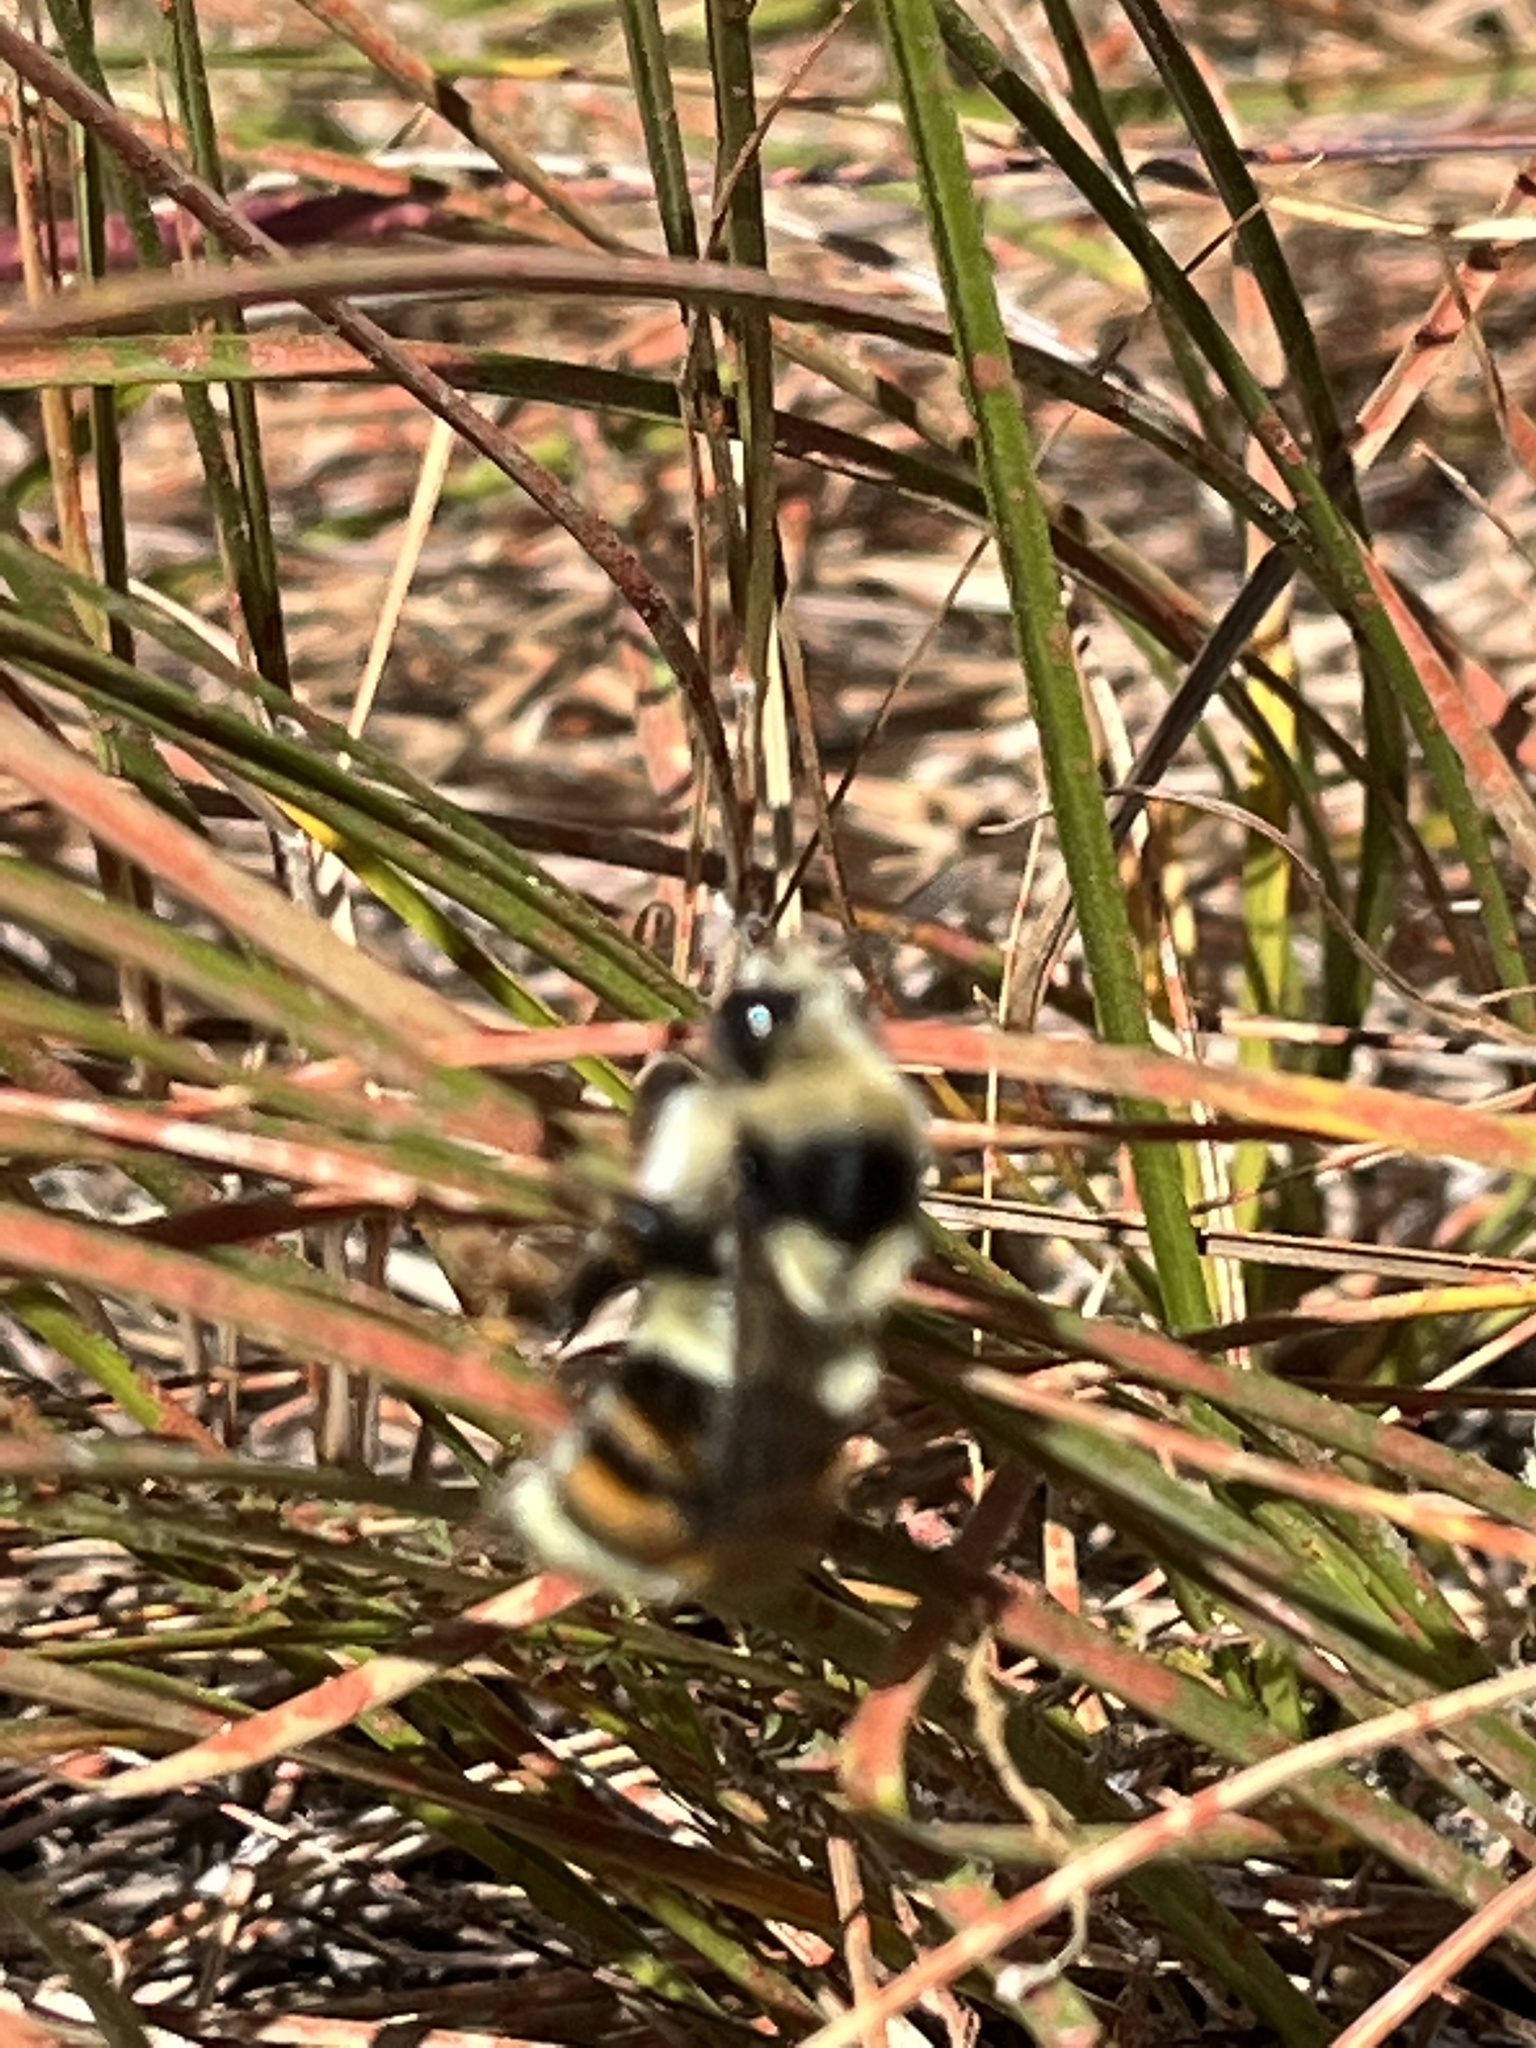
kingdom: Animalia
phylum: Arthropoda
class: Insecta
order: Hymenoptera
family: Apidae
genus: Bombus
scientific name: Bombus vancouverensis
